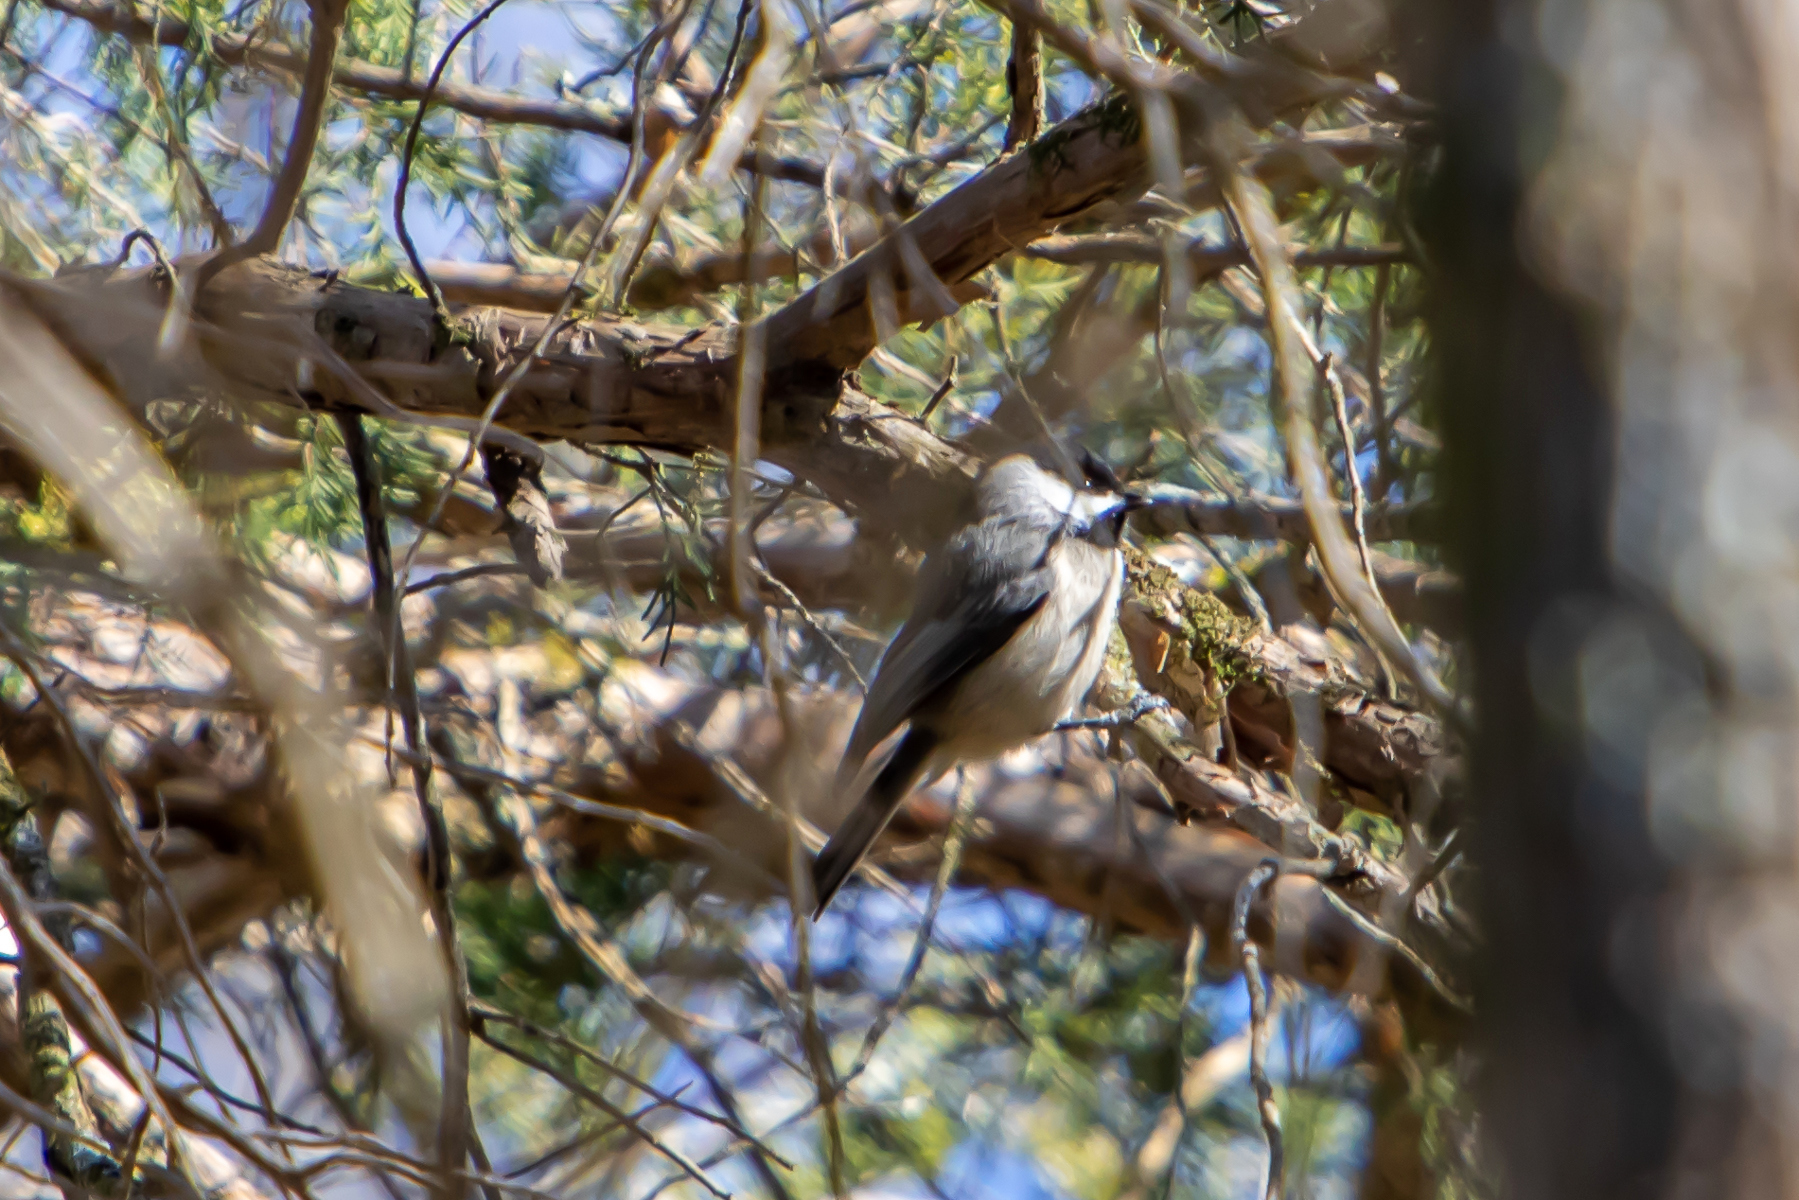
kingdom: Animalia
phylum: Chordata
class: Aves
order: Passeriformes
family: Paridae
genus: Poecile
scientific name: Poecile carolinensis
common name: Carolina chickadee
